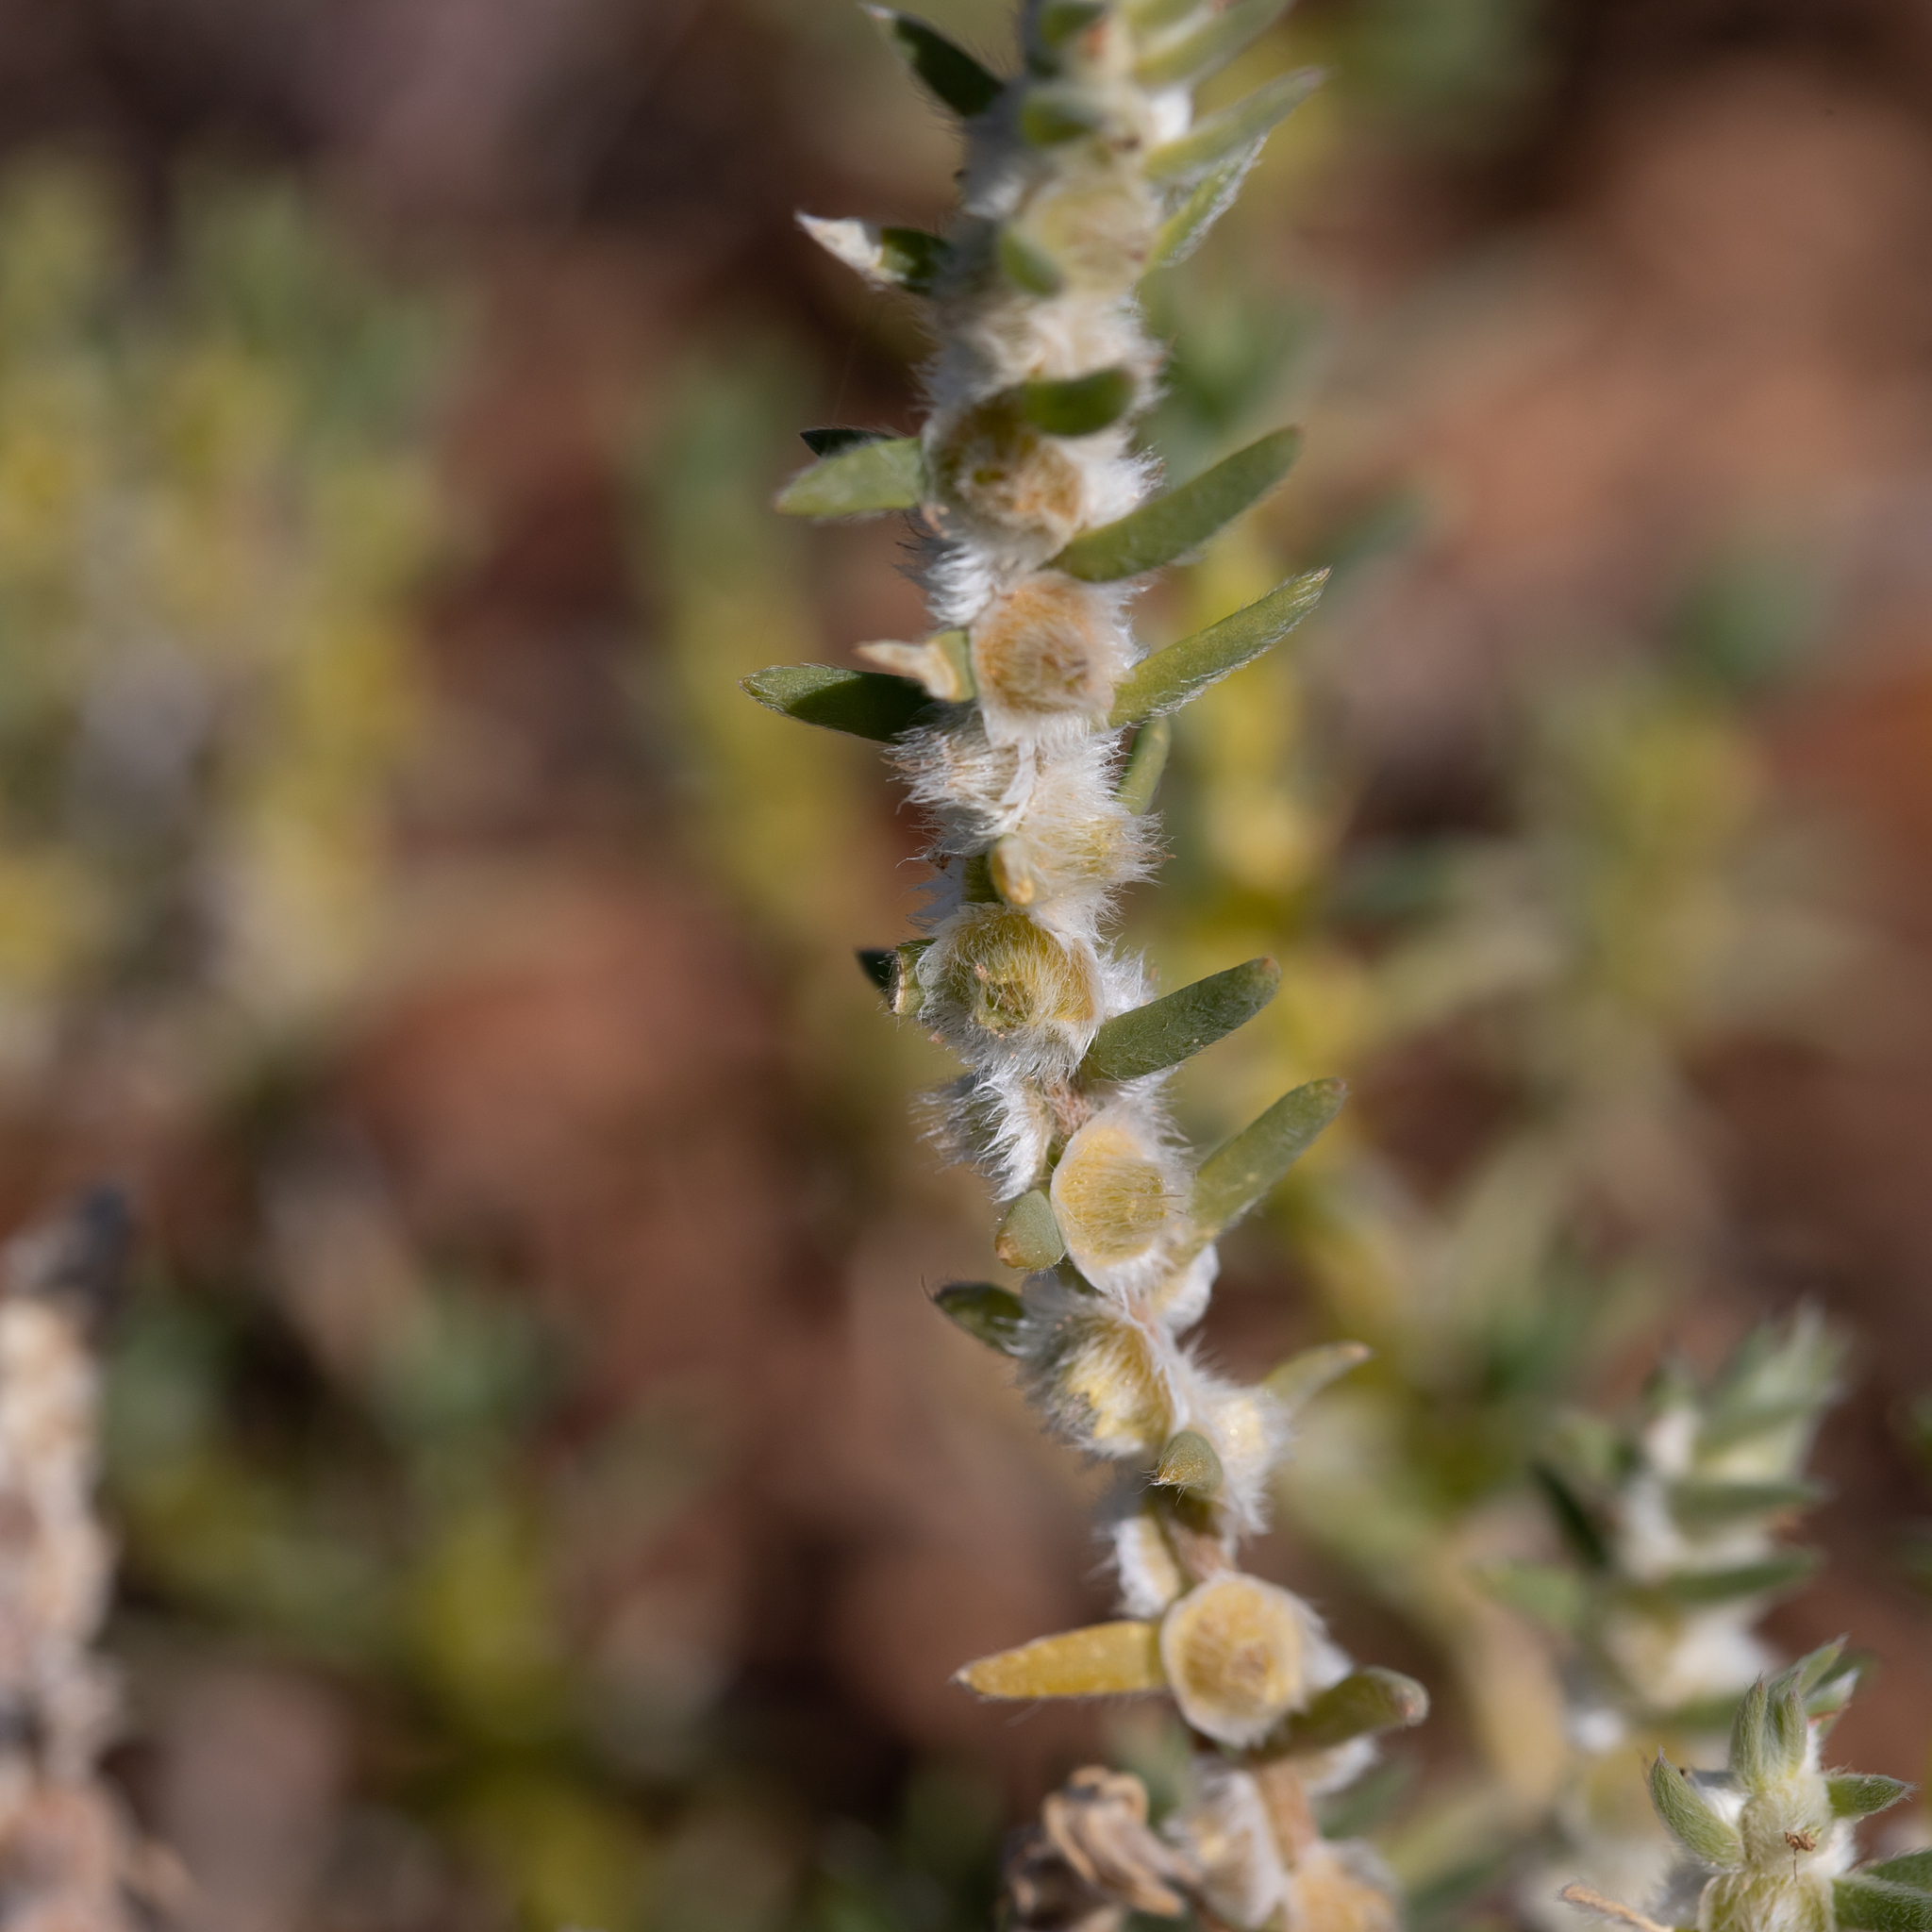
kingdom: Plantae
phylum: Tracheophyta
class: Magnoliopsida
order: Caryophyllales
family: Amaranthaceae
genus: Maireana
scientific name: Maireana coronata
